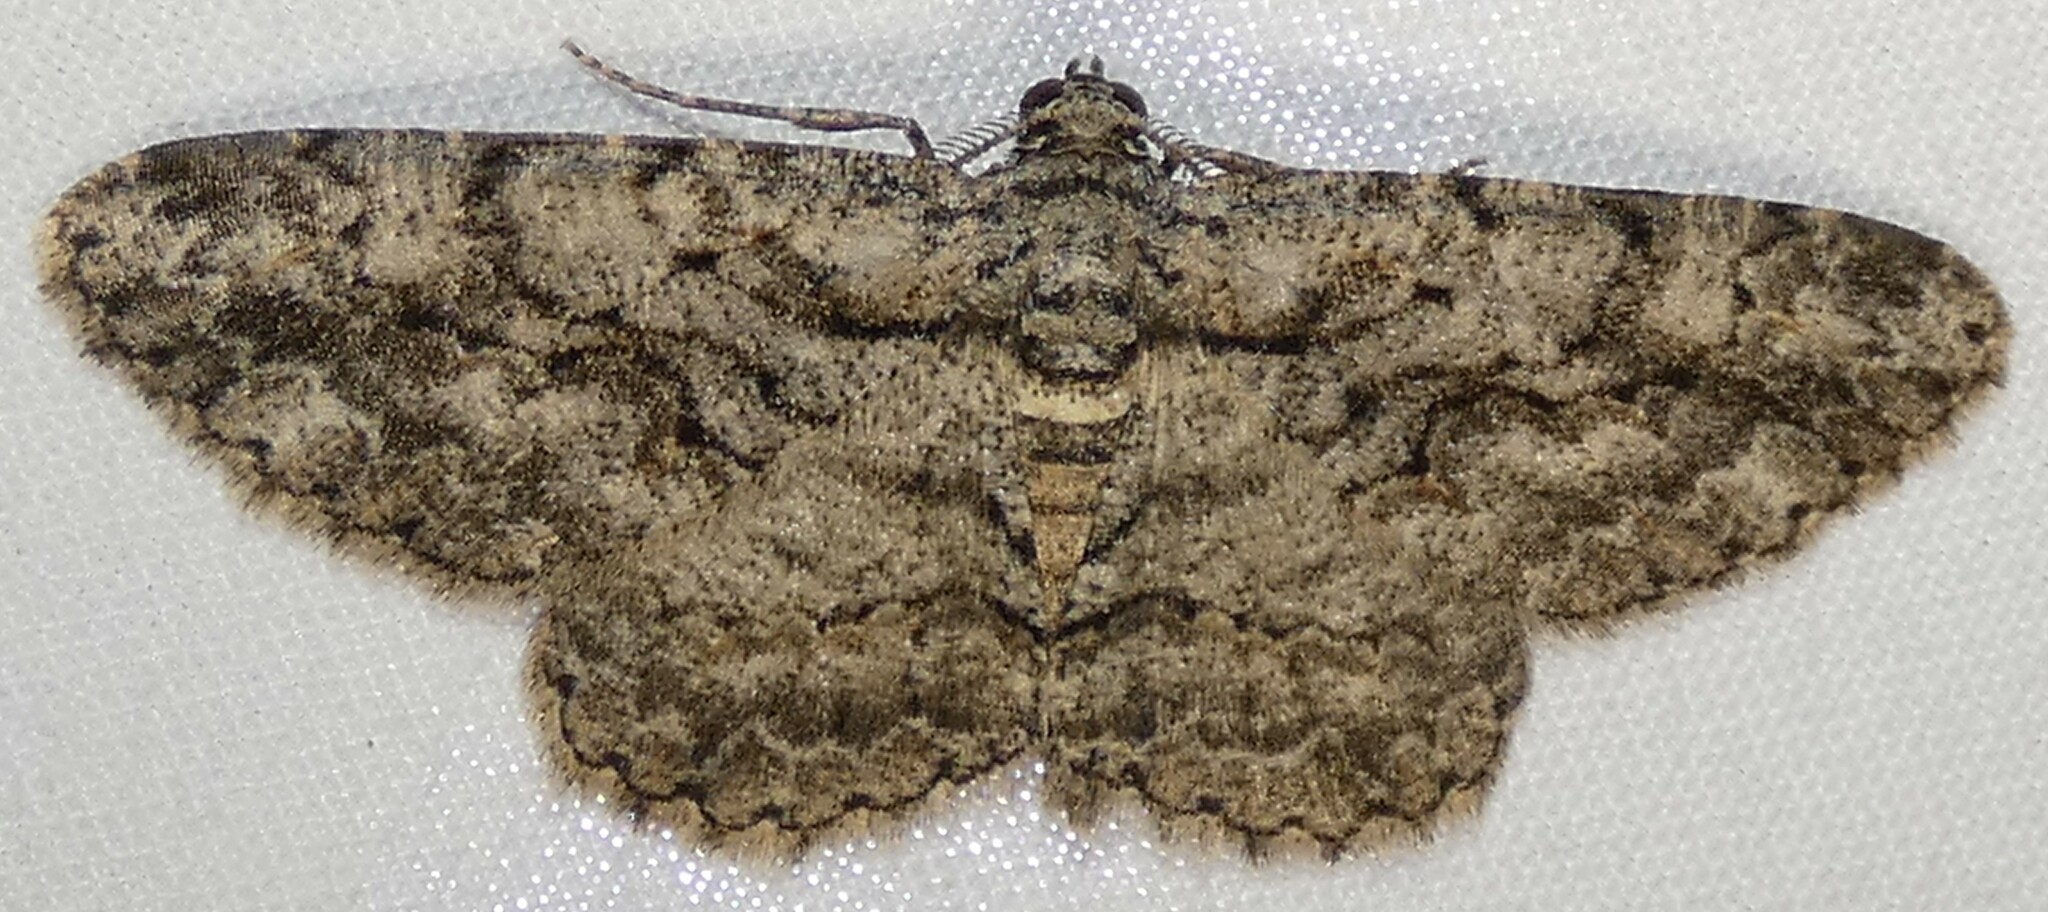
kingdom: Animalia
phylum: Arthropoda
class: Insecta
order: Lepidoptera
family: Geometridae
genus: Anavitrinella
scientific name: Anavitrinella pampinaria
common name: Common gray
